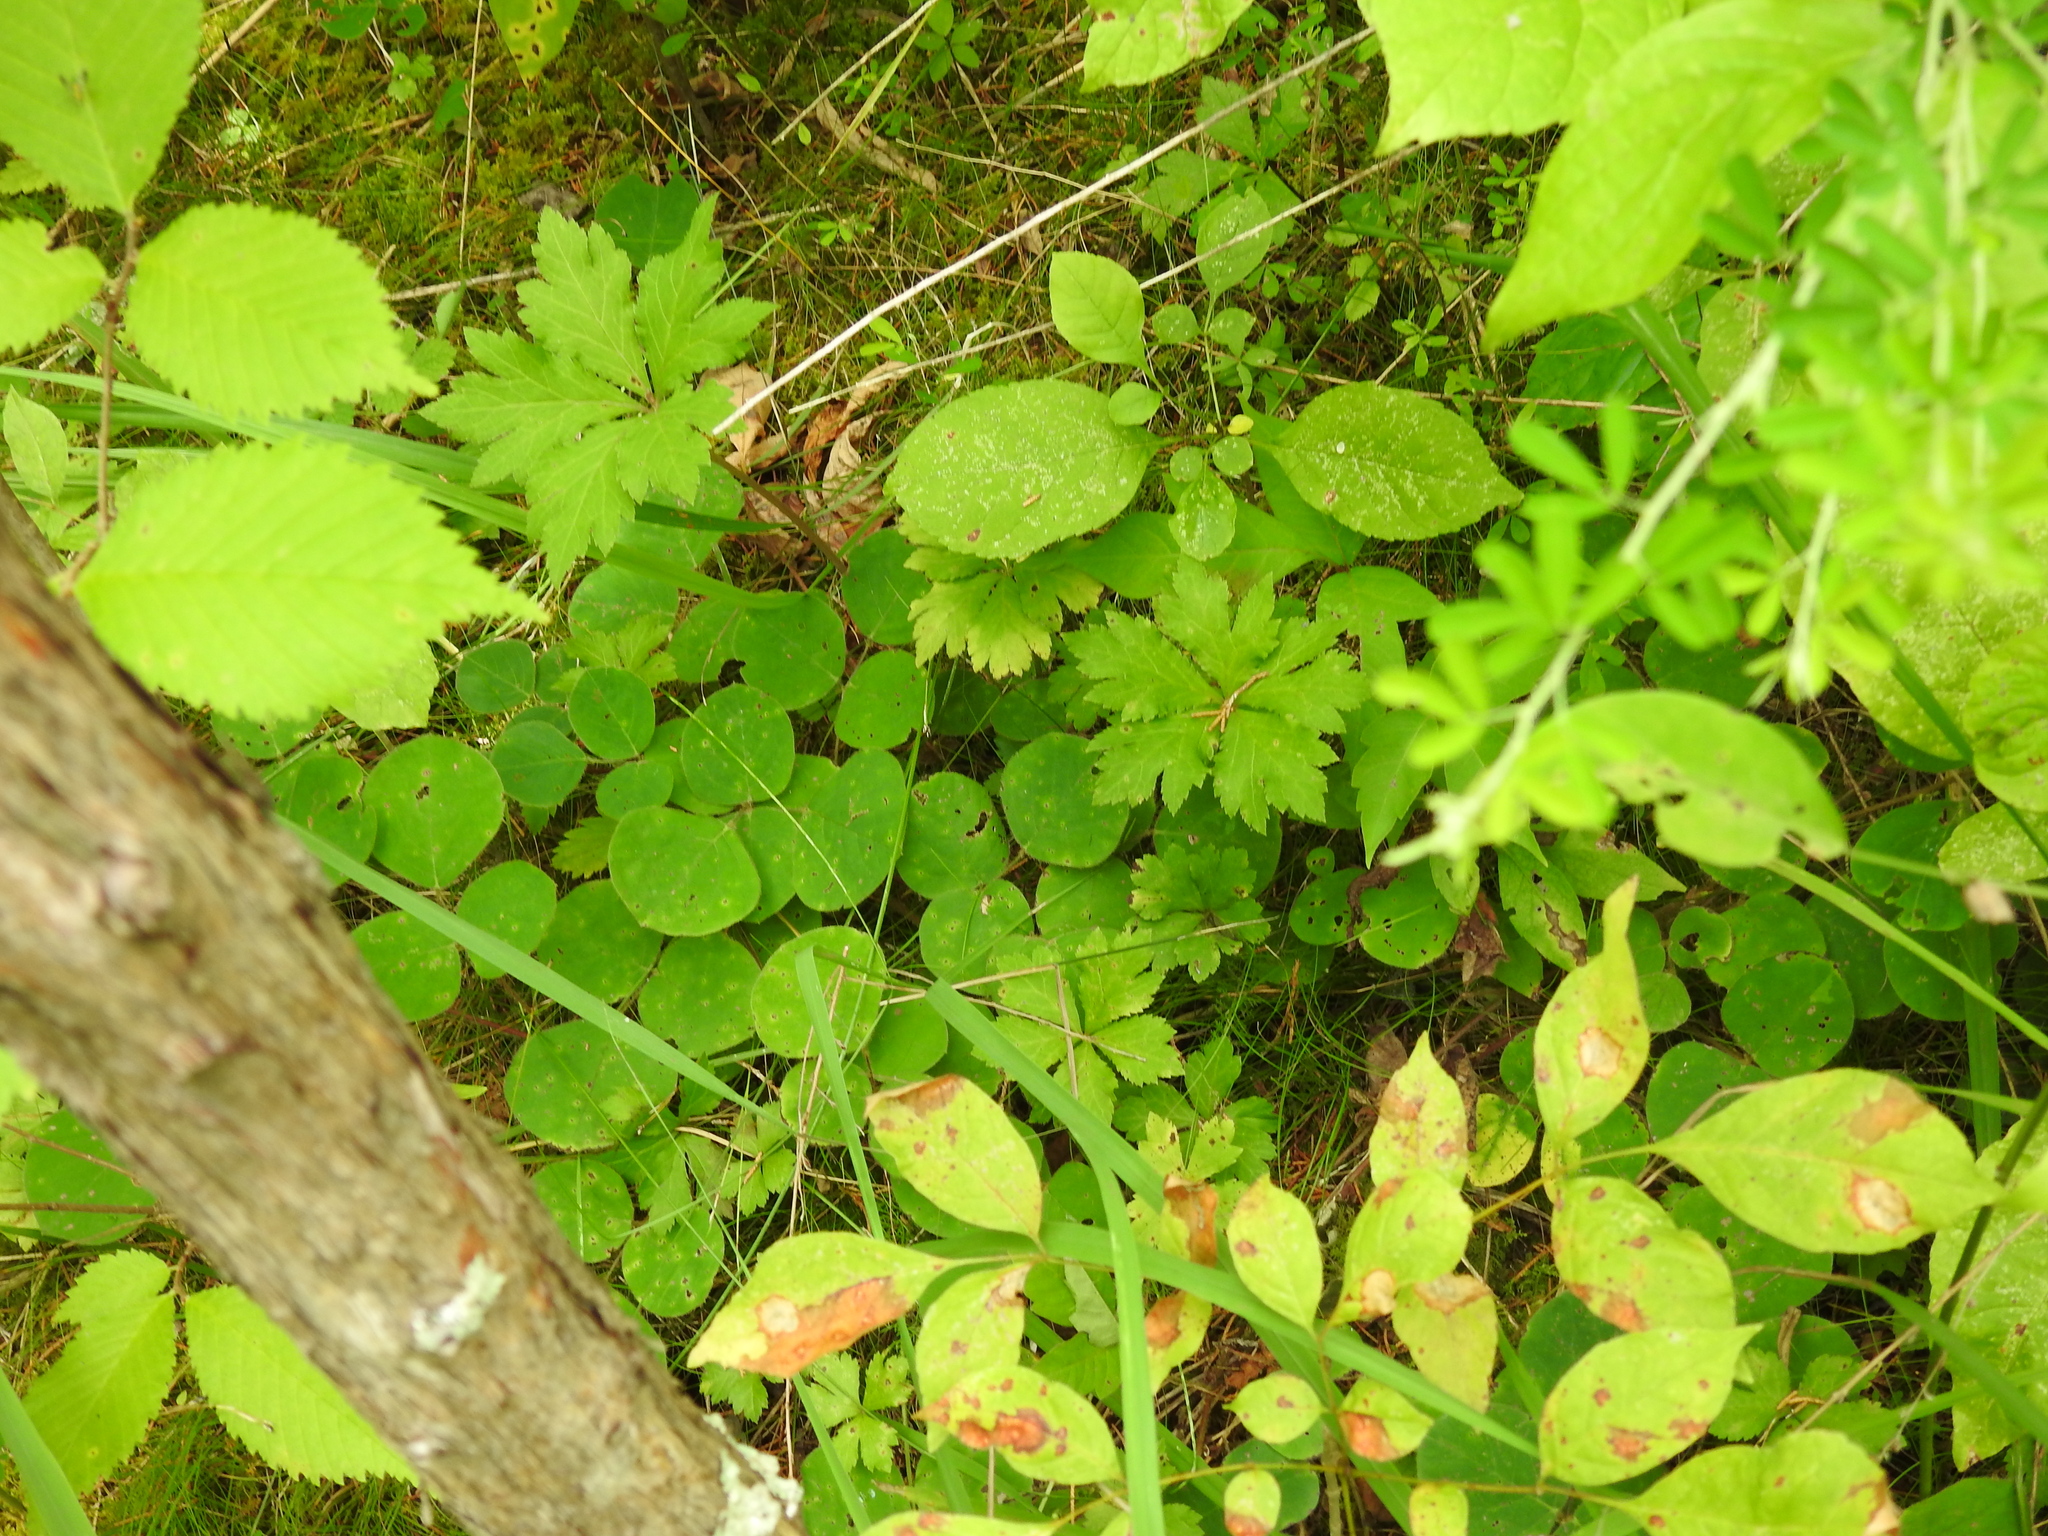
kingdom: Plantae
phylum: Tracheophyta
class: Magnoliopsida
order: Fabales
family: Fabaceae
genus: Desmodium
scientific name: Desmodium rotundifolium
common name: Dollarleaf
